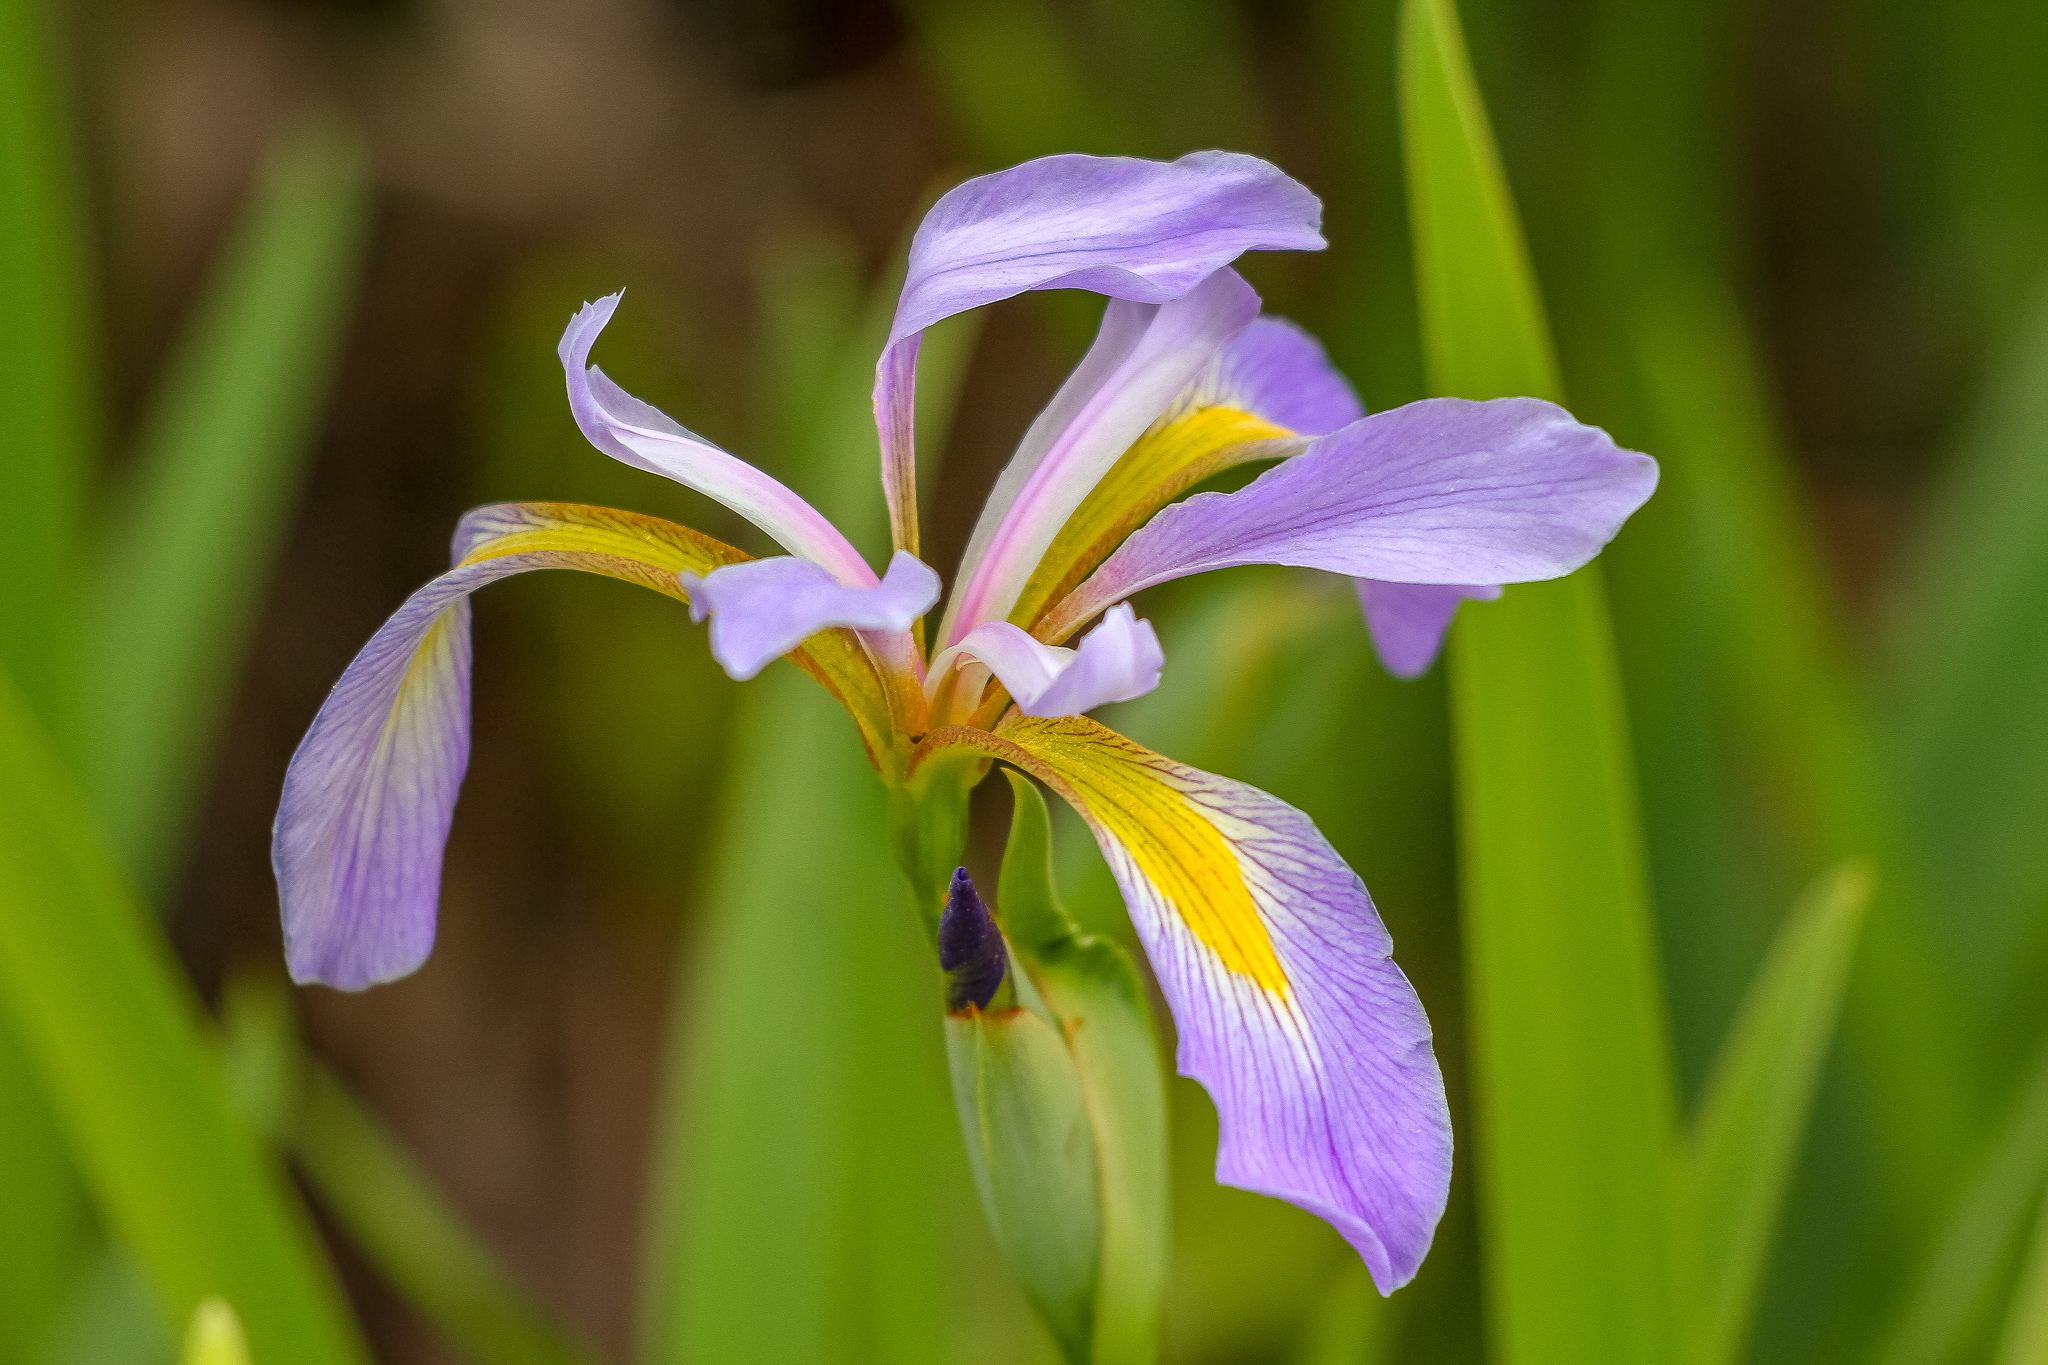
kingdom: Plantae
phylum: Tracheophyta
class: Liliopsida
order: Asparagales
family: Iridaceae
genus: Iris
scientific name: Iris virginica
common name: Southern blue flag
